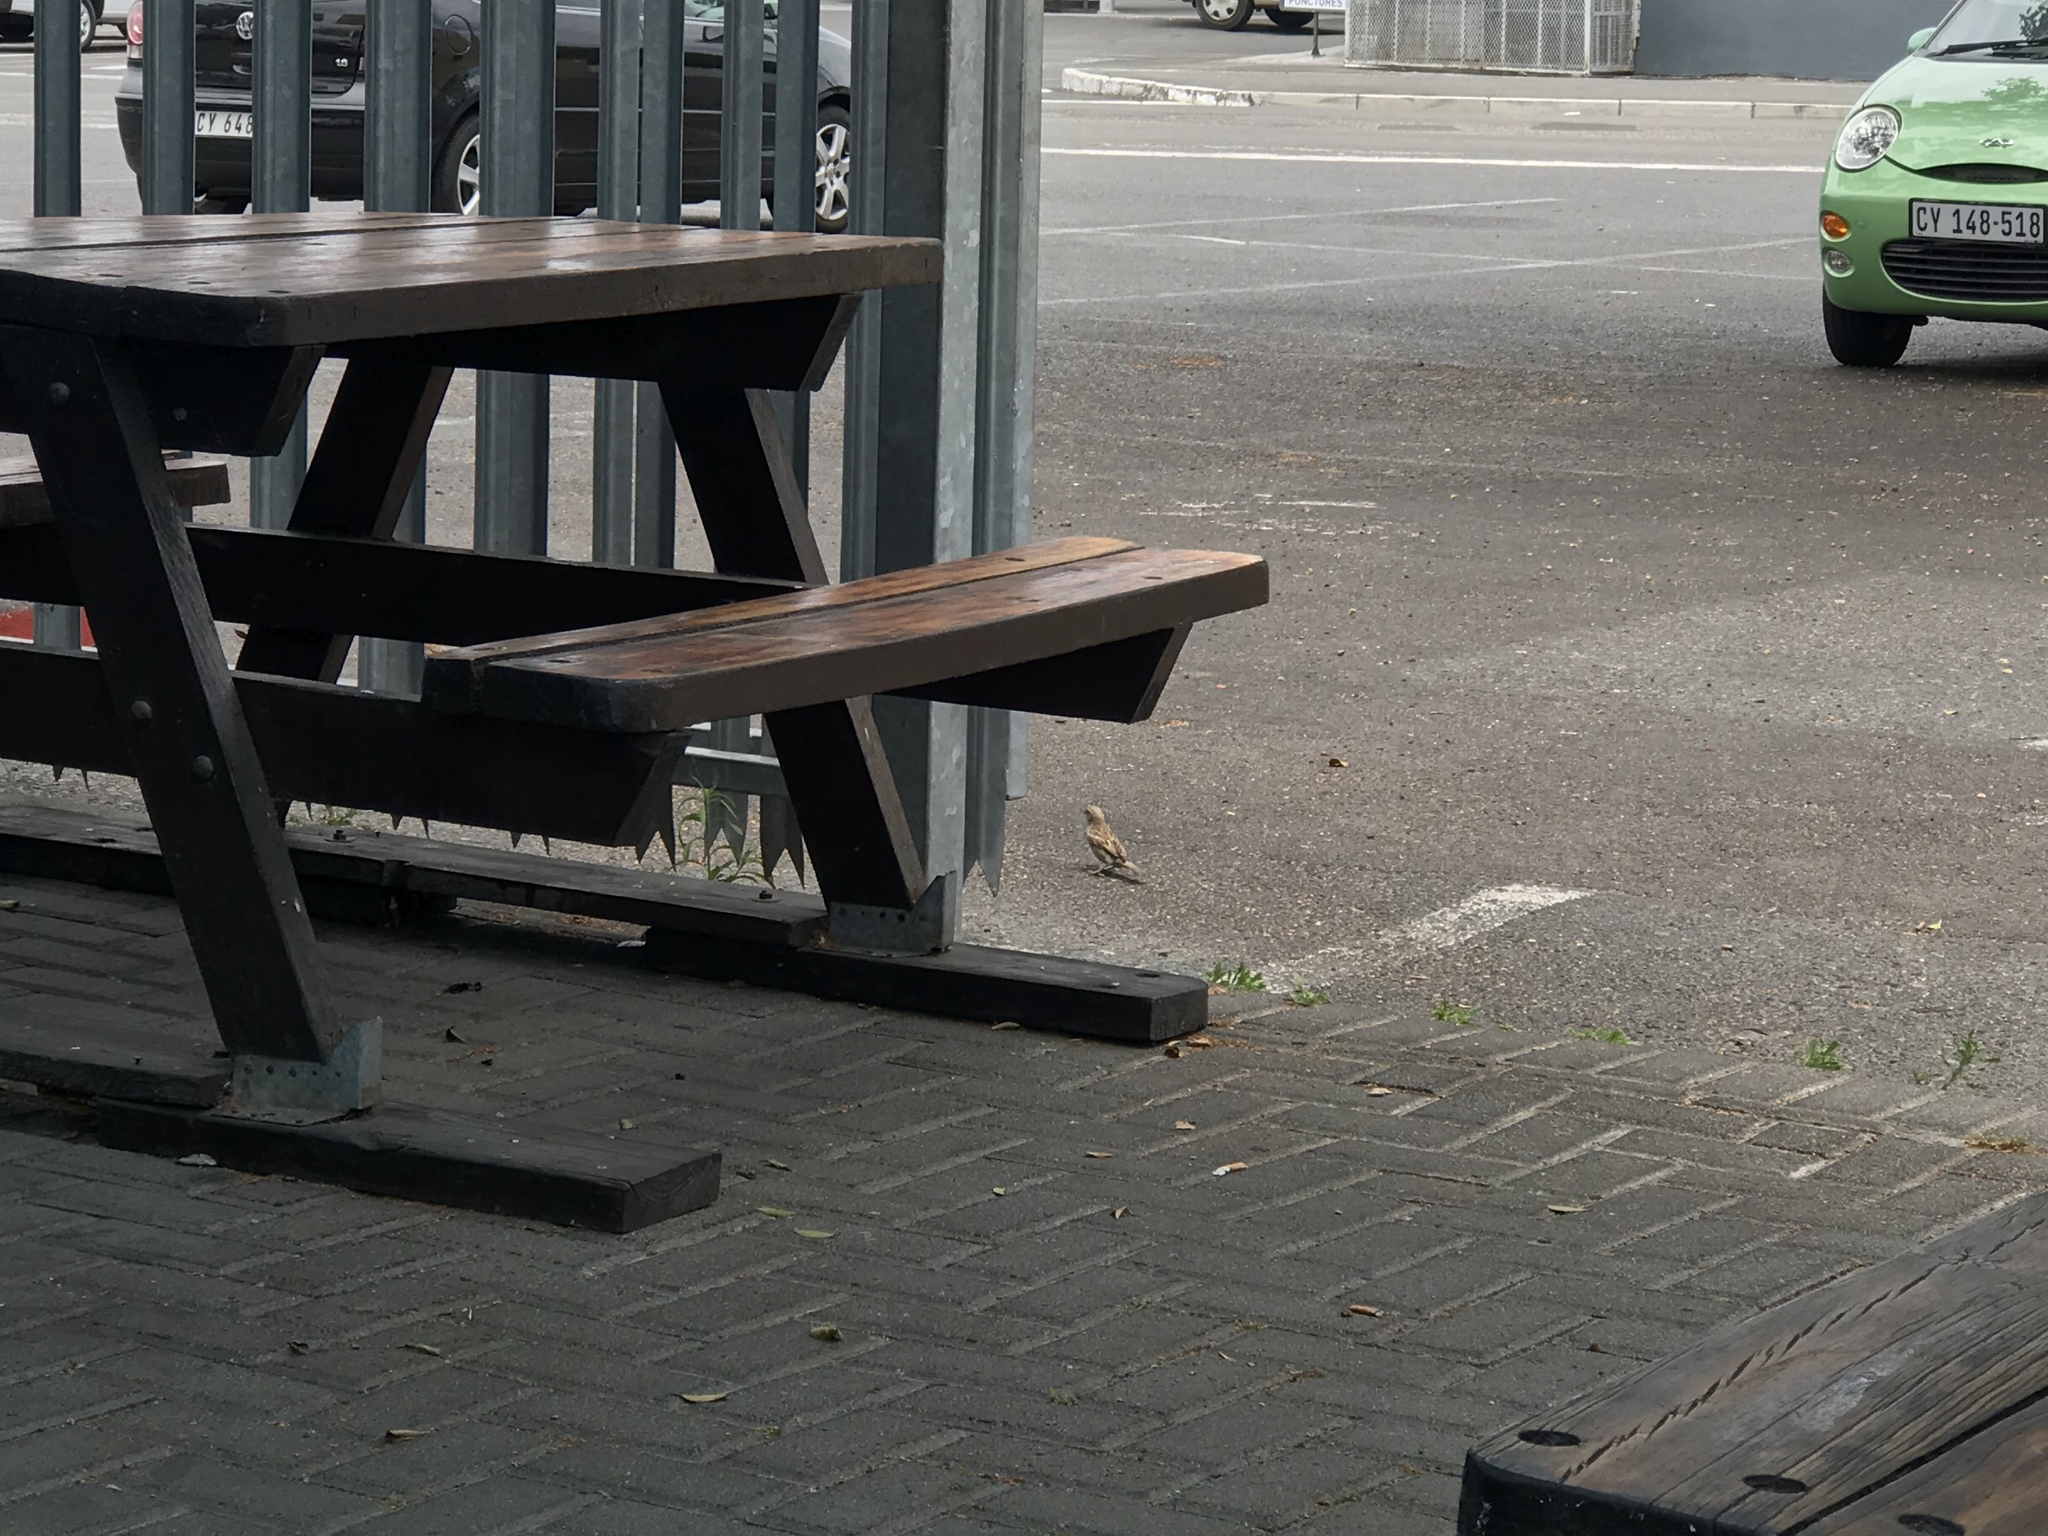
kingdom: Animalia
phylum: Chordata
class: Aves
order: Passeriformes
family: Passeridae
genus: Passer
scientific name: Passer domesticus
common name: House sparrow
